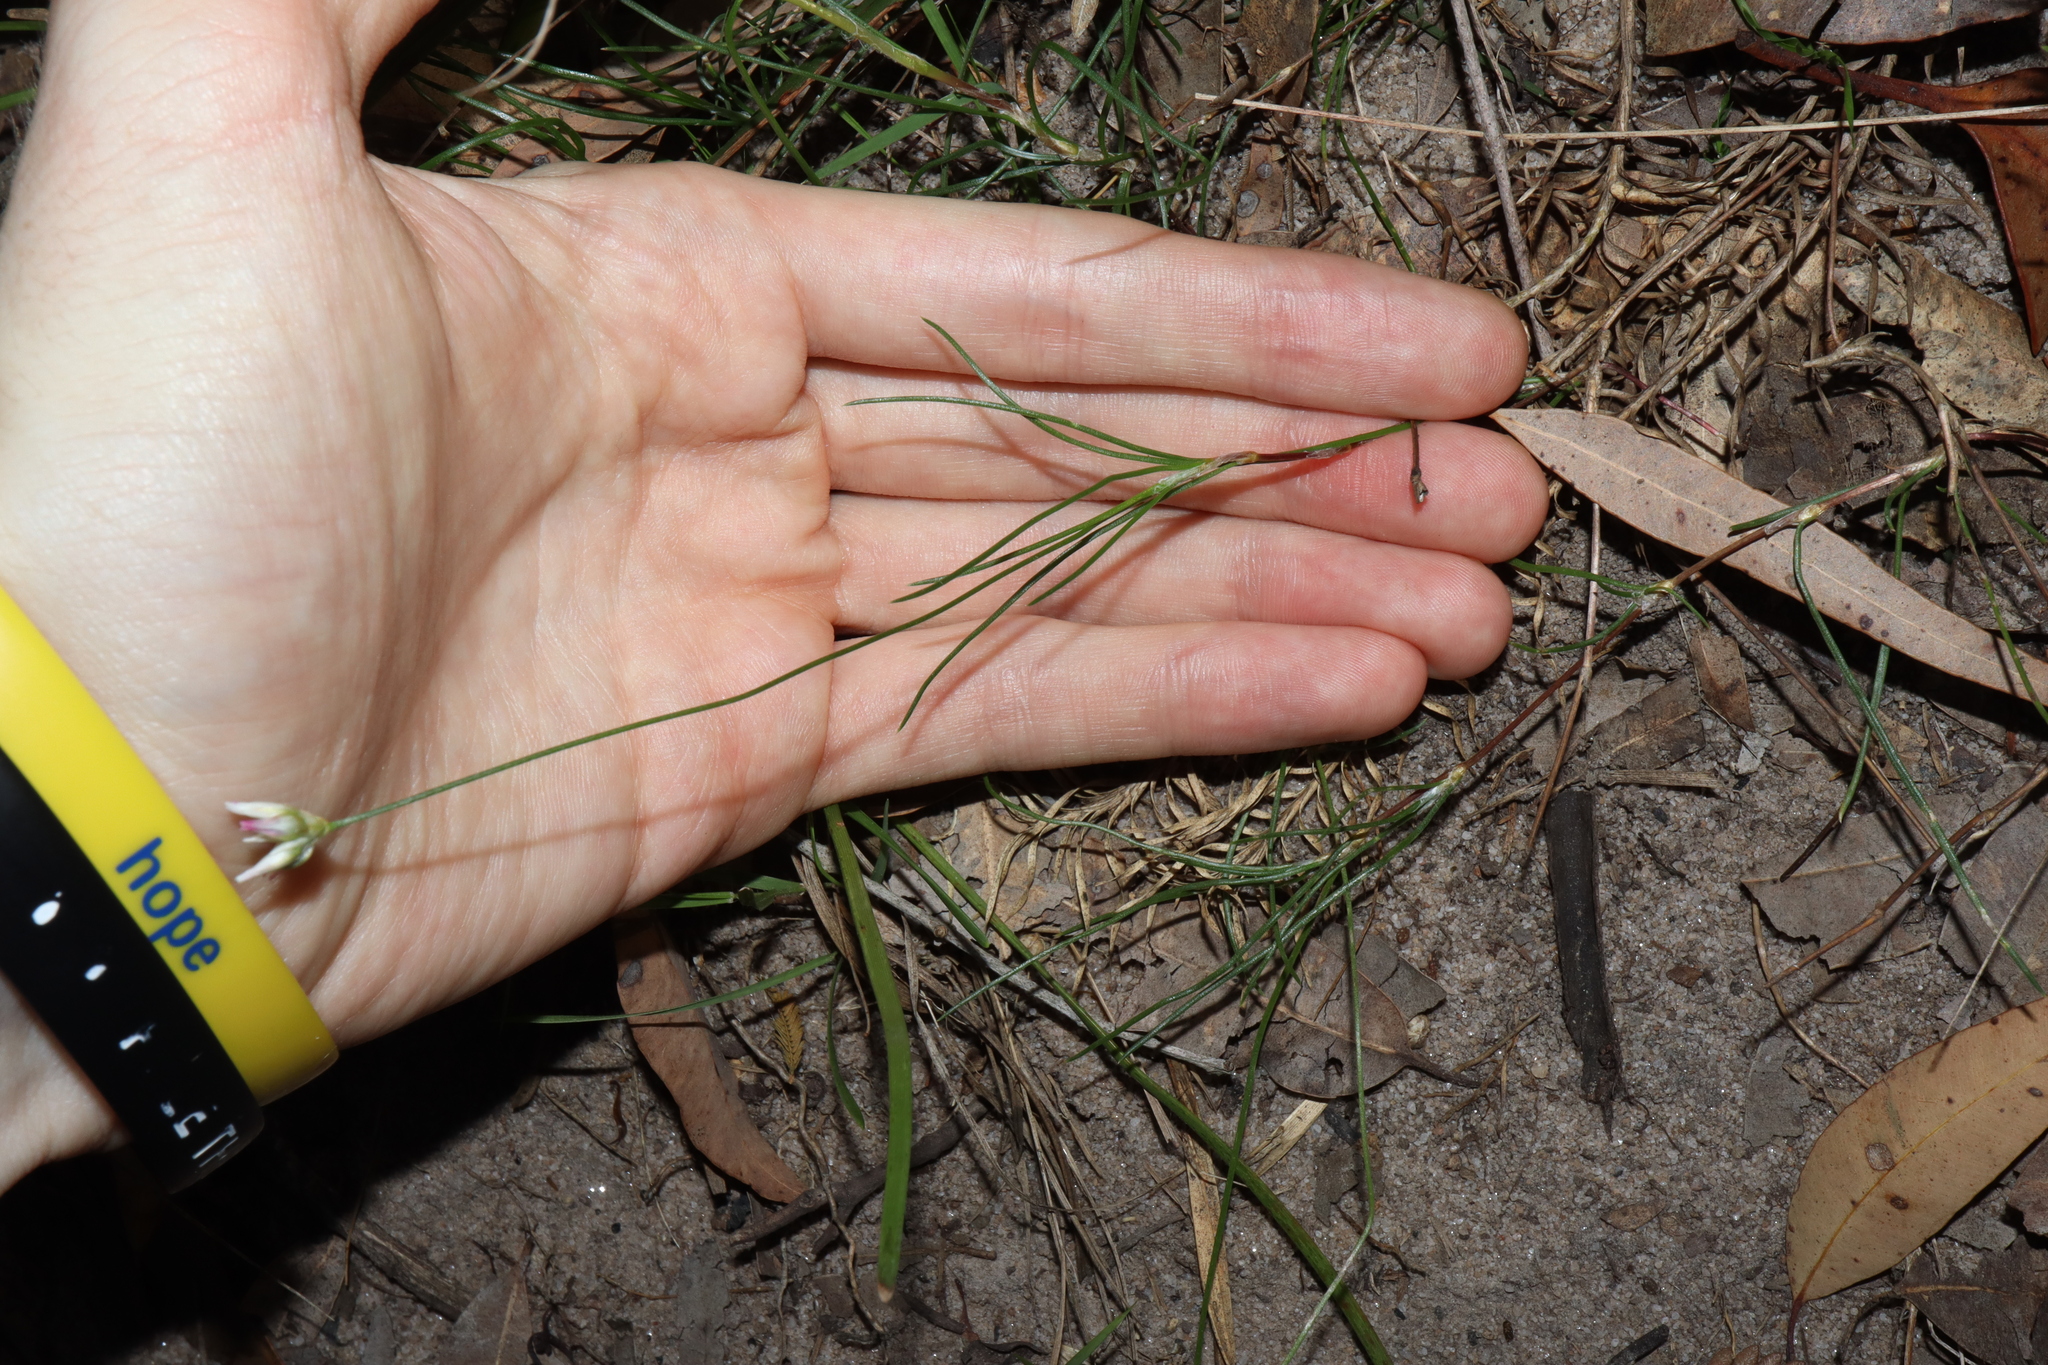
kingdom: Plantae
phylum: Tracheophyta
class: Liliopsida
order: Asparagales
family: Asparagaceae
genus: Laxmannia
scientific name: Laxmannia gracilis
